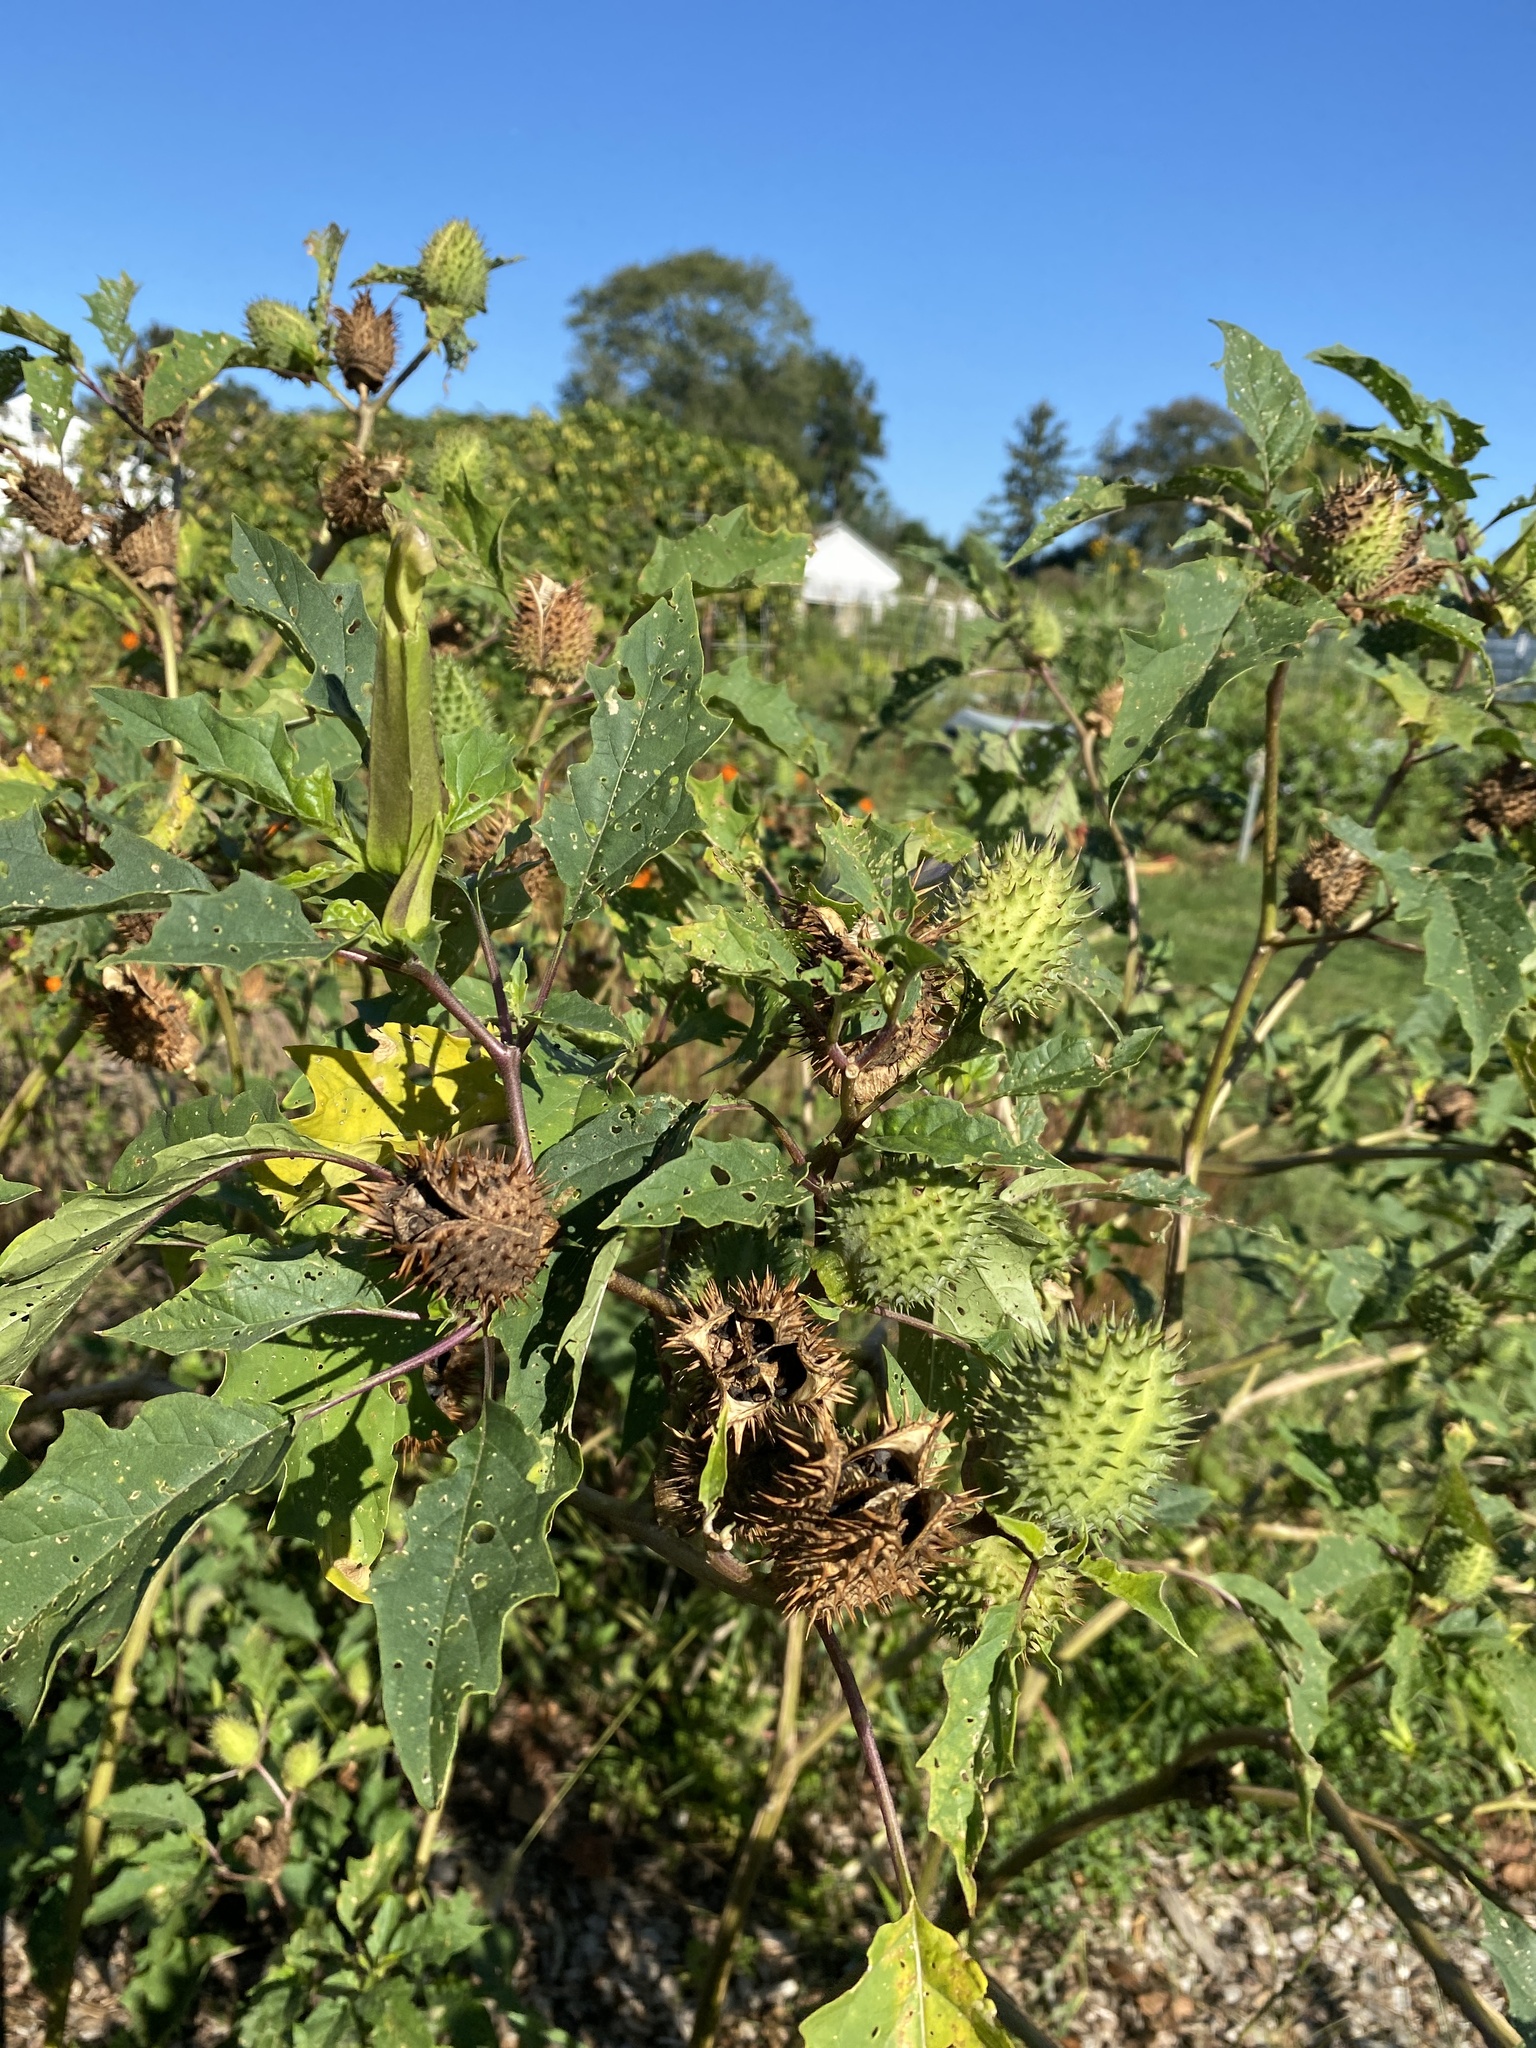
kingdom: Plantae
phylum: Tracheophyta
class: Magnoliopsida
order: Solanales
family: Solanaceae
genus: Datura
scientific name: Datura stramonium
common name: Thorn-apple
